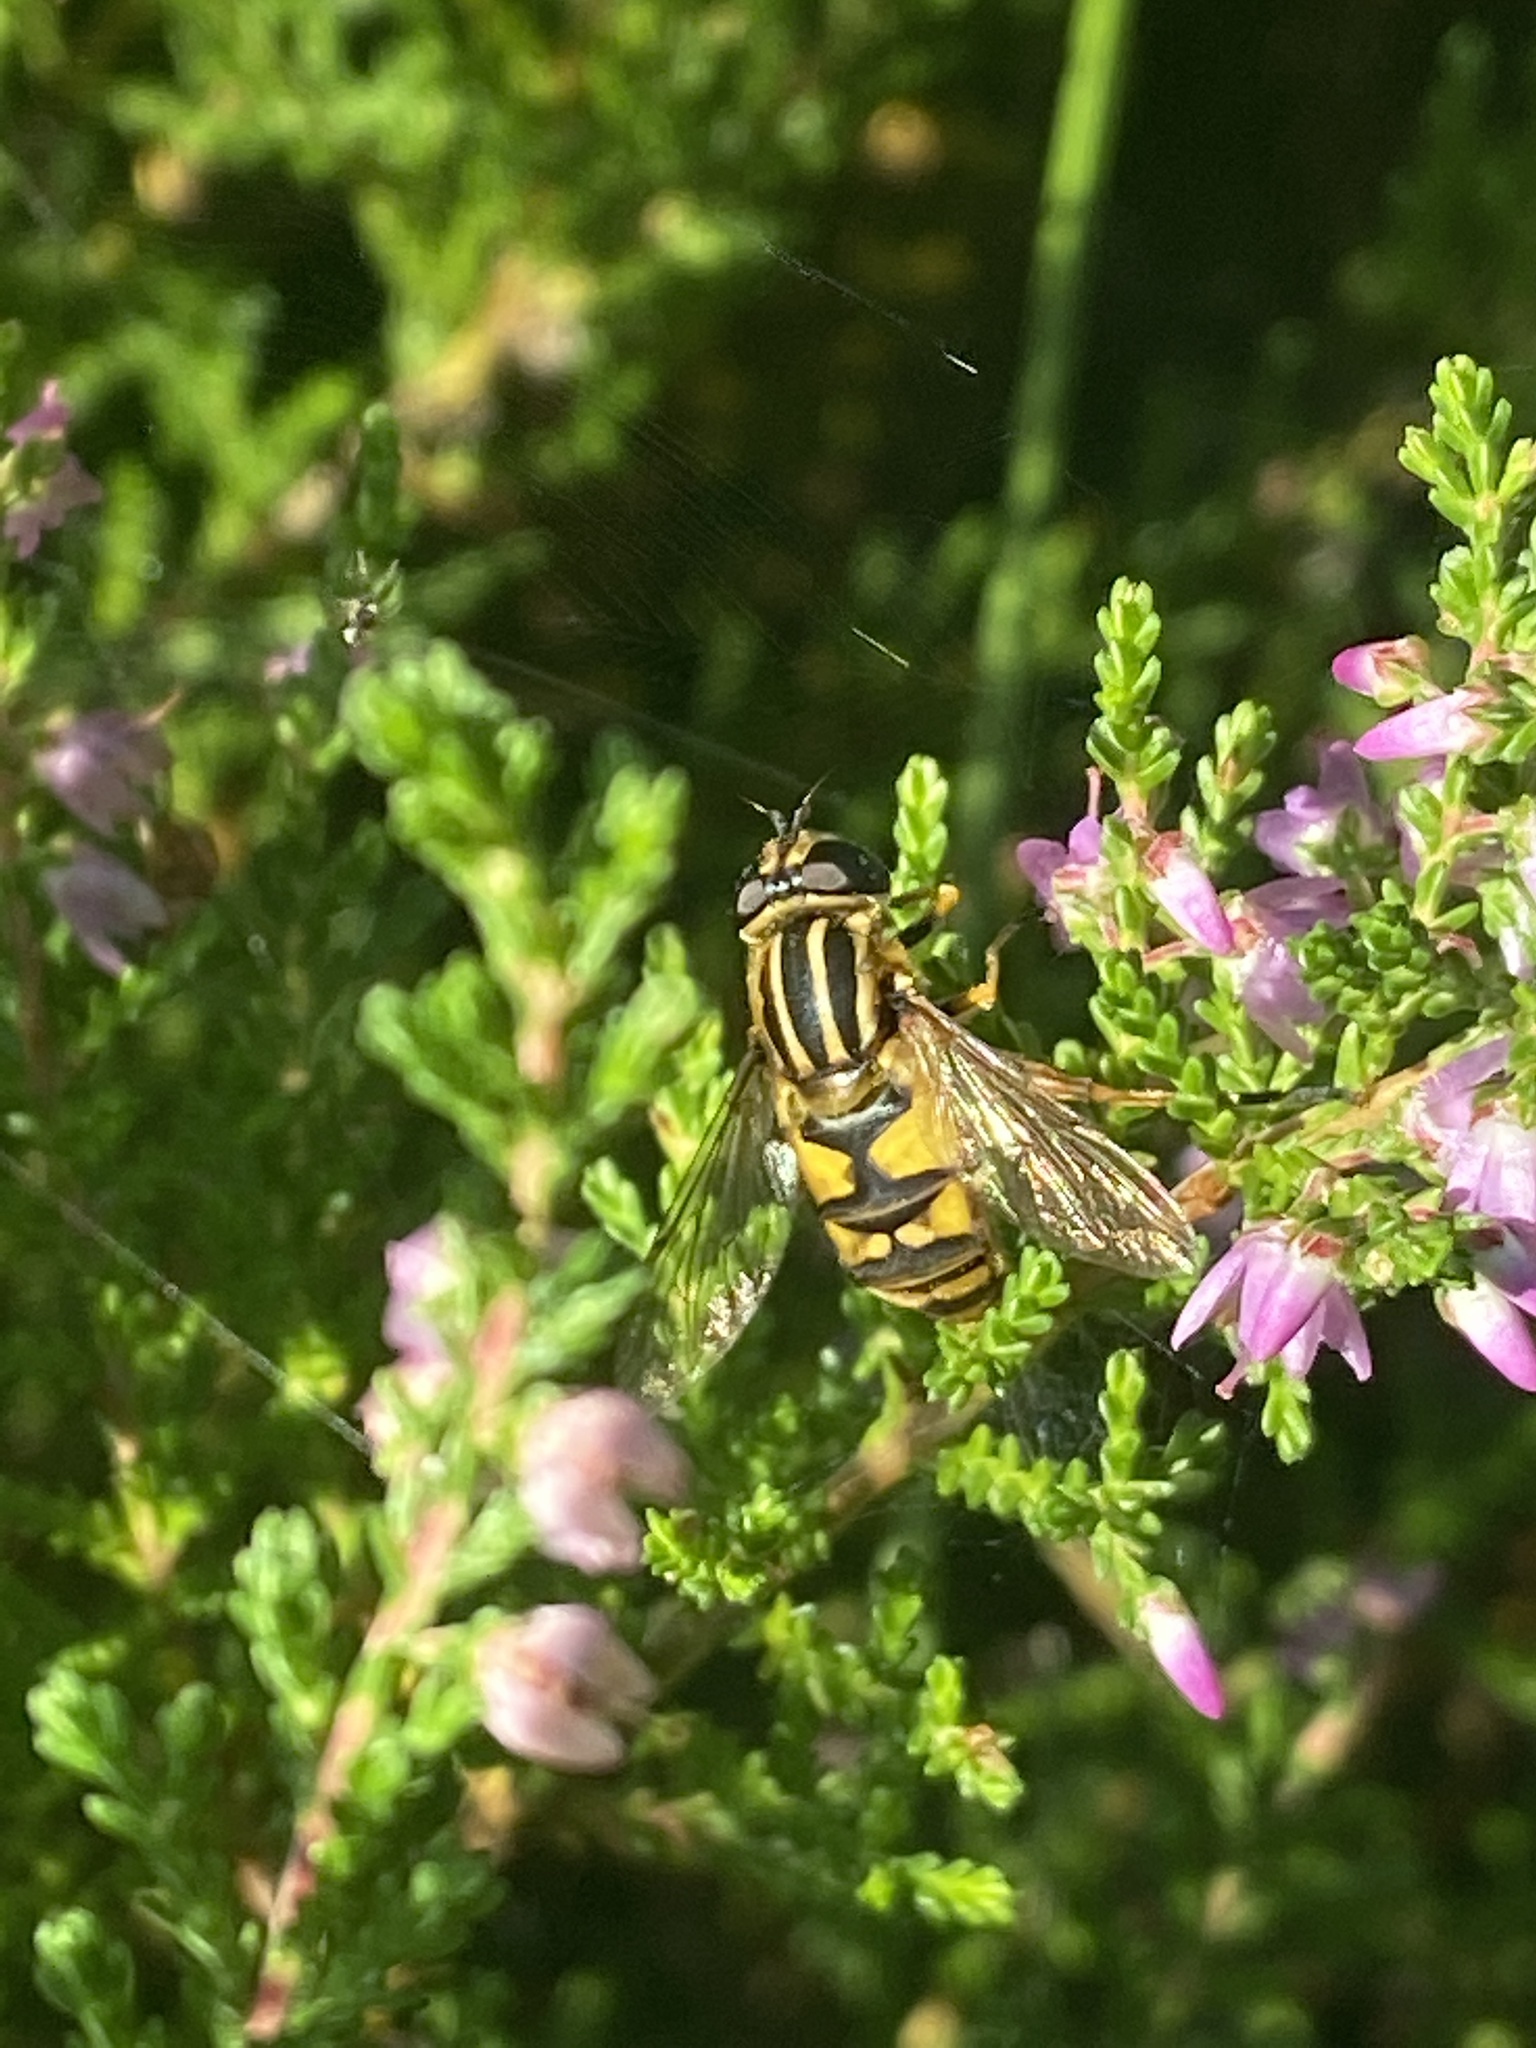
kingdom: Animalia
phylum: Arthropoda
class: Insecta
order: Diptera
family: Syrphidae
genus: Helophilus
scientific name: Helophilus pendulus
